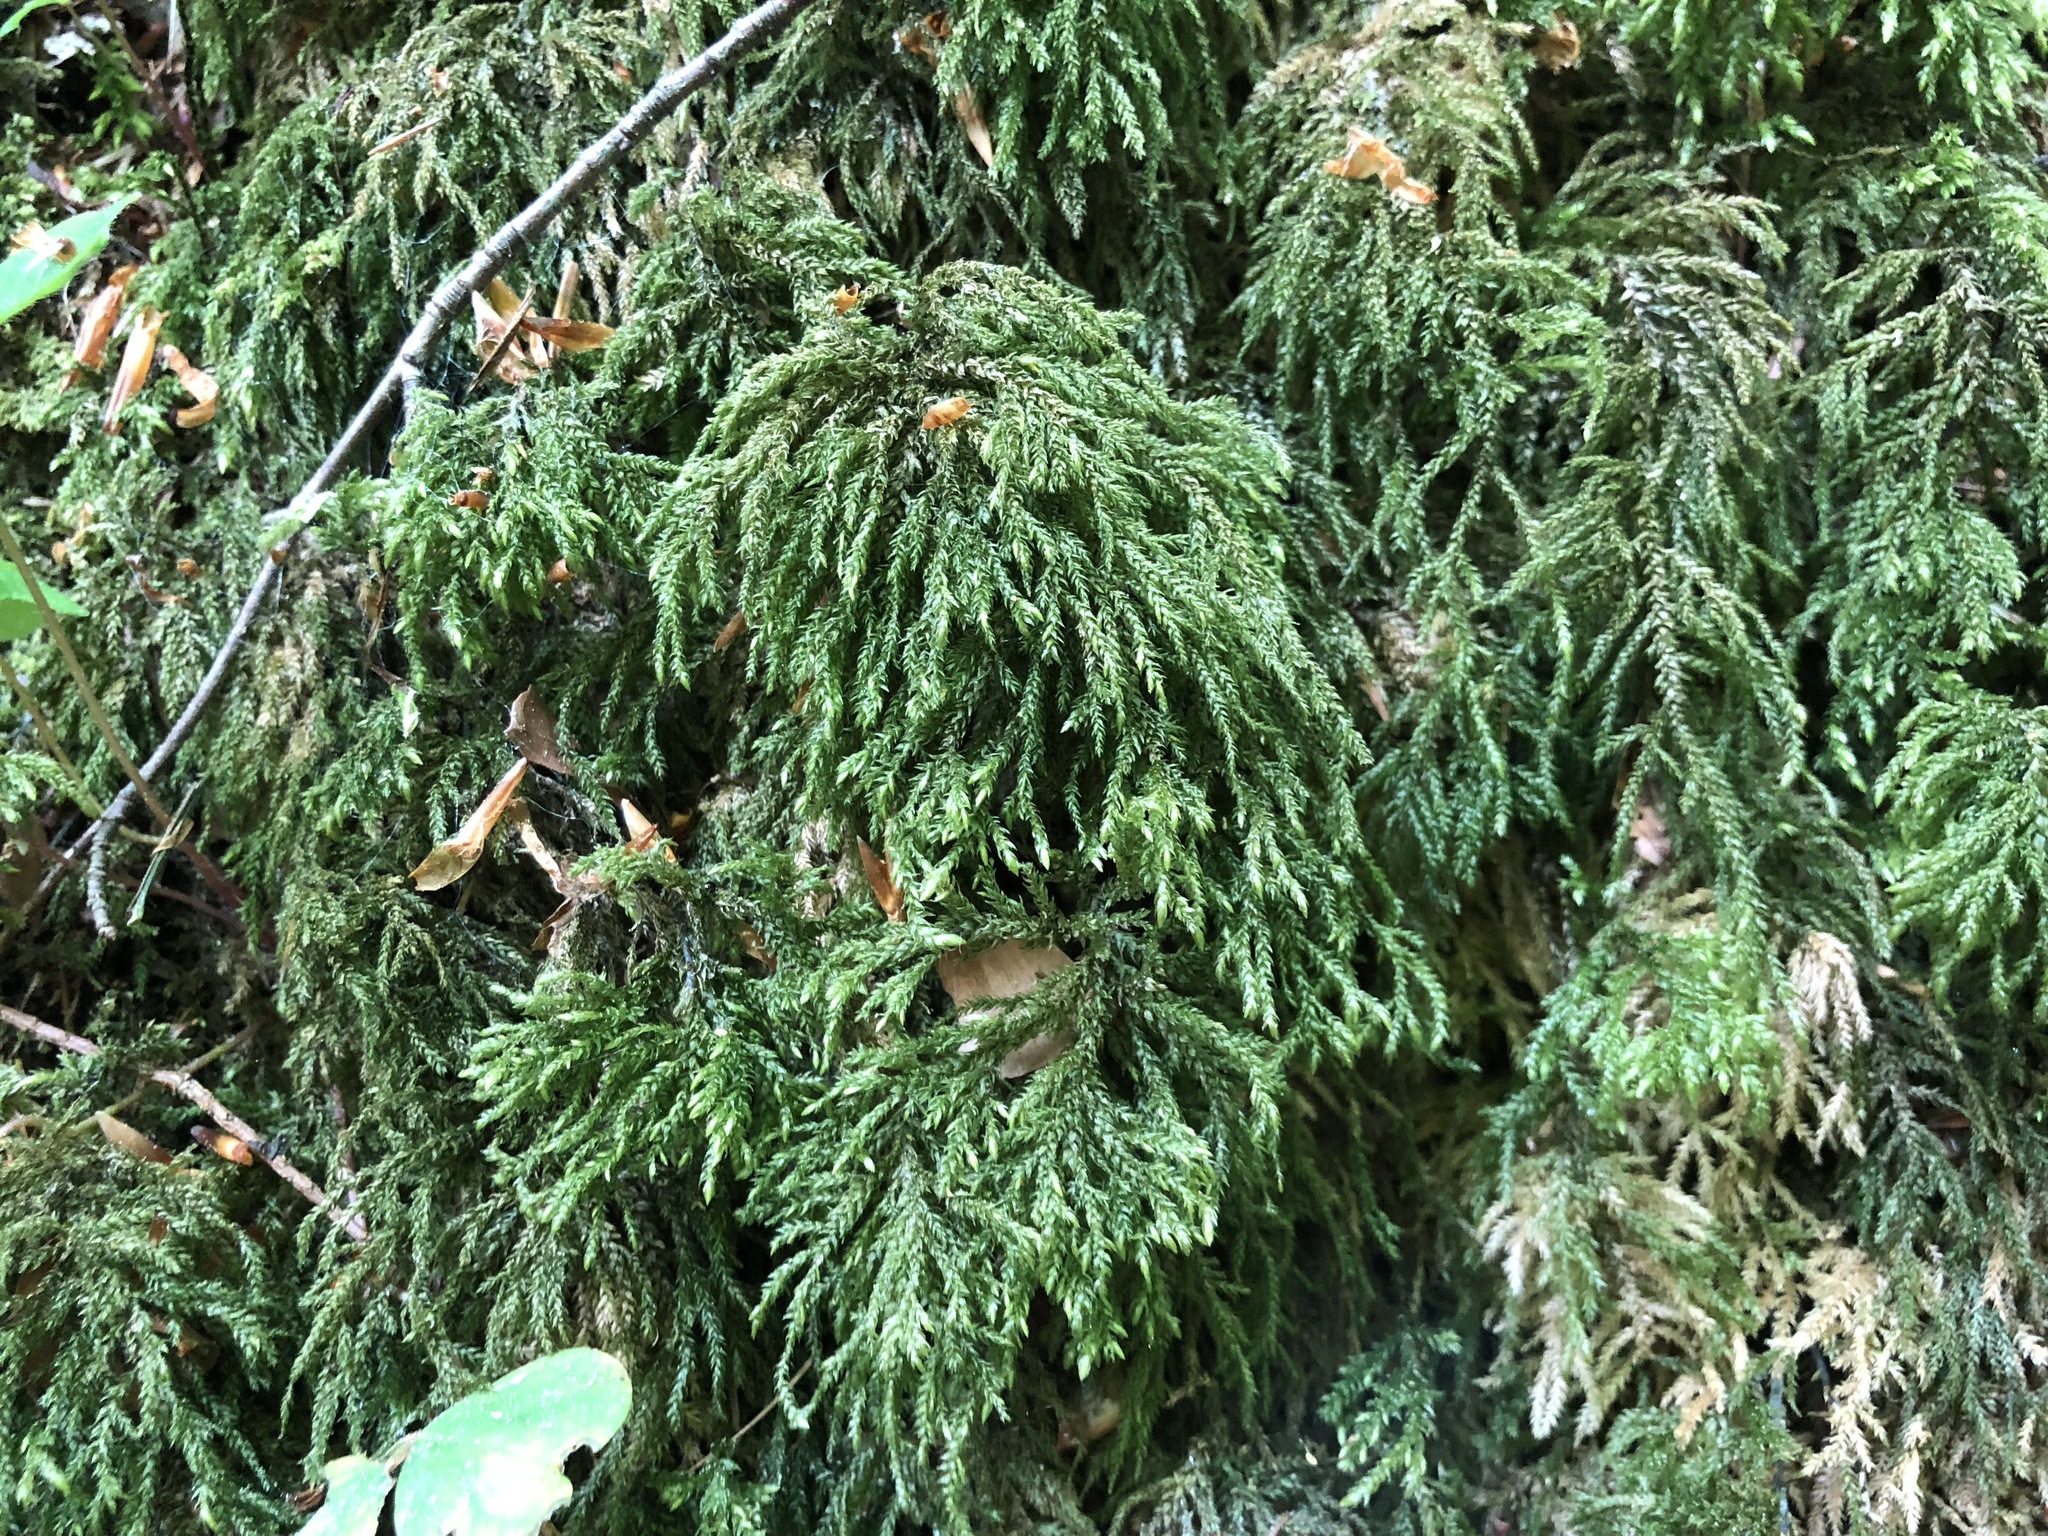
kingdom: Plantae
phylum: Bryophyta
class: Bryopsida
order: Hypnales
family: Neckeraceae
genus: Thamnobryum
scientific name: Thamnobryum alopecurum
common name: Fox-tail feather-moss
